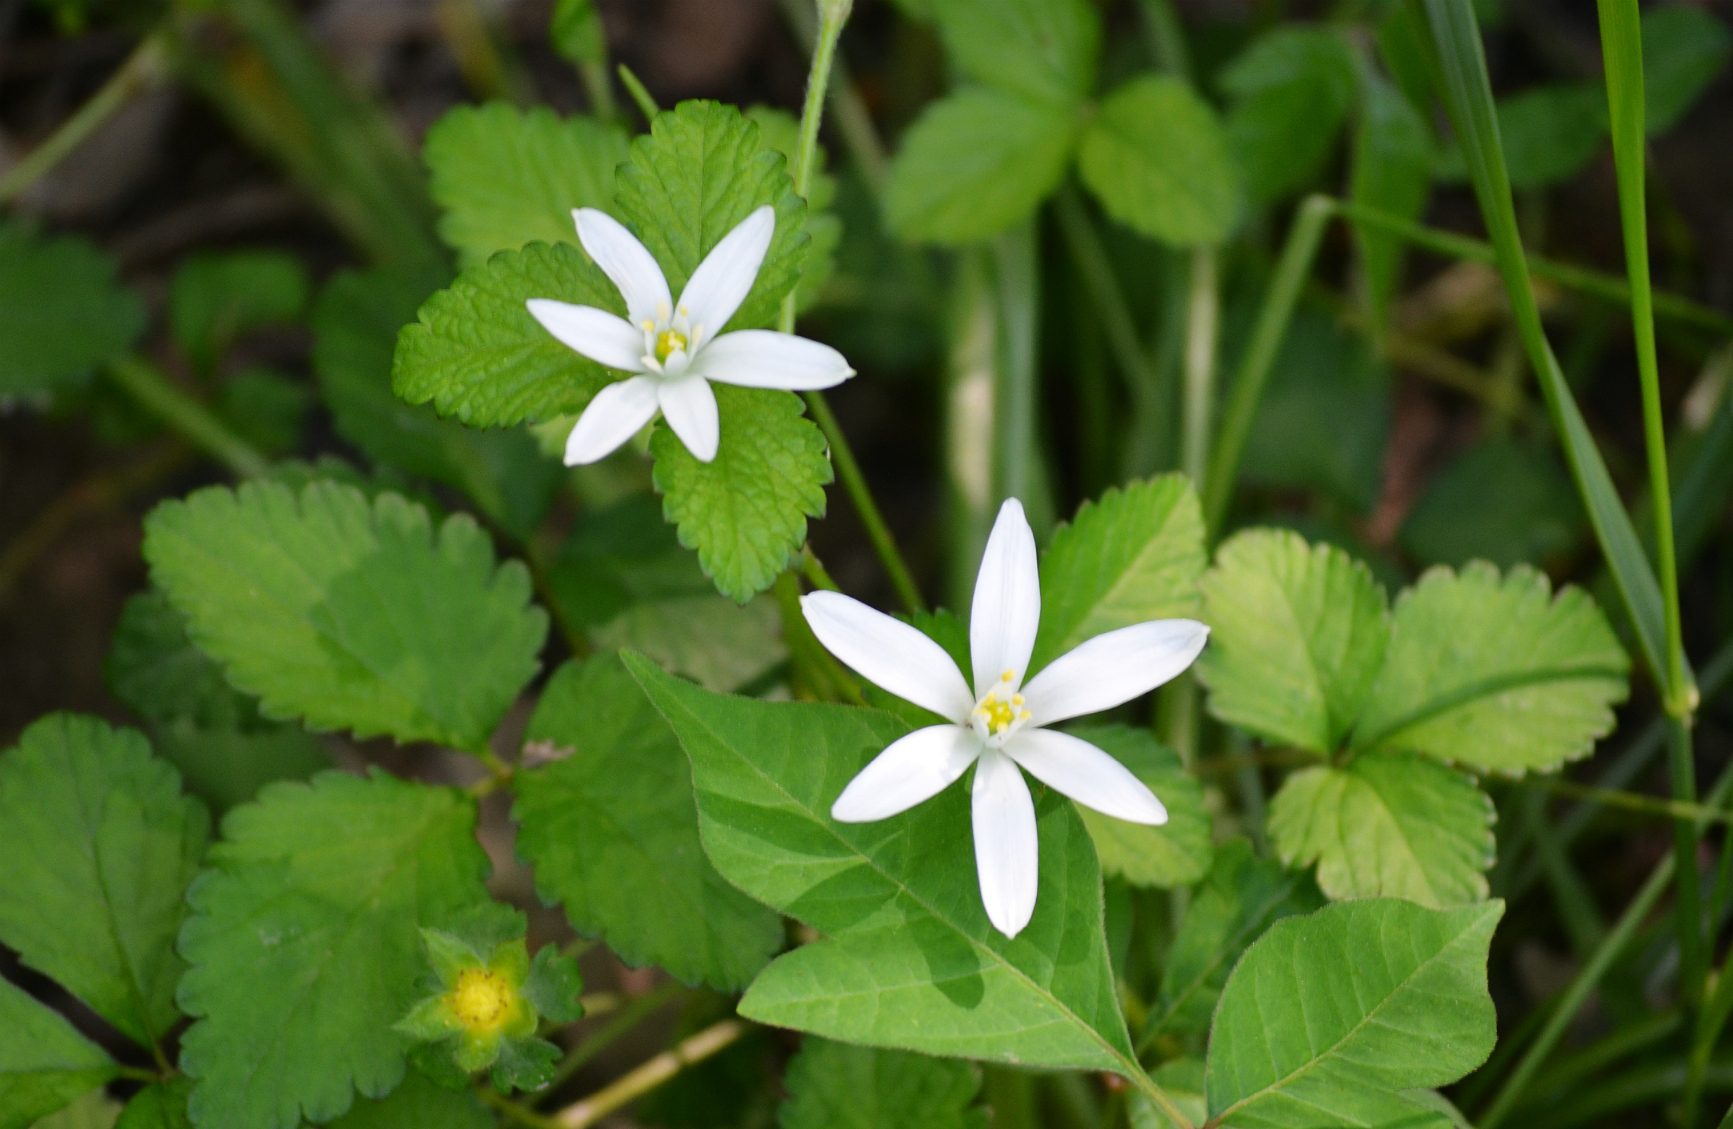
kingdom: Plantae
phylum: Tracheophyta
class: Liliopsida
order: Asparagales
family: Asparagaceae
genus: Ornithogalum
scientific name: Ornithogalum umbellatum
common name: Garden star-of-bethlehem
